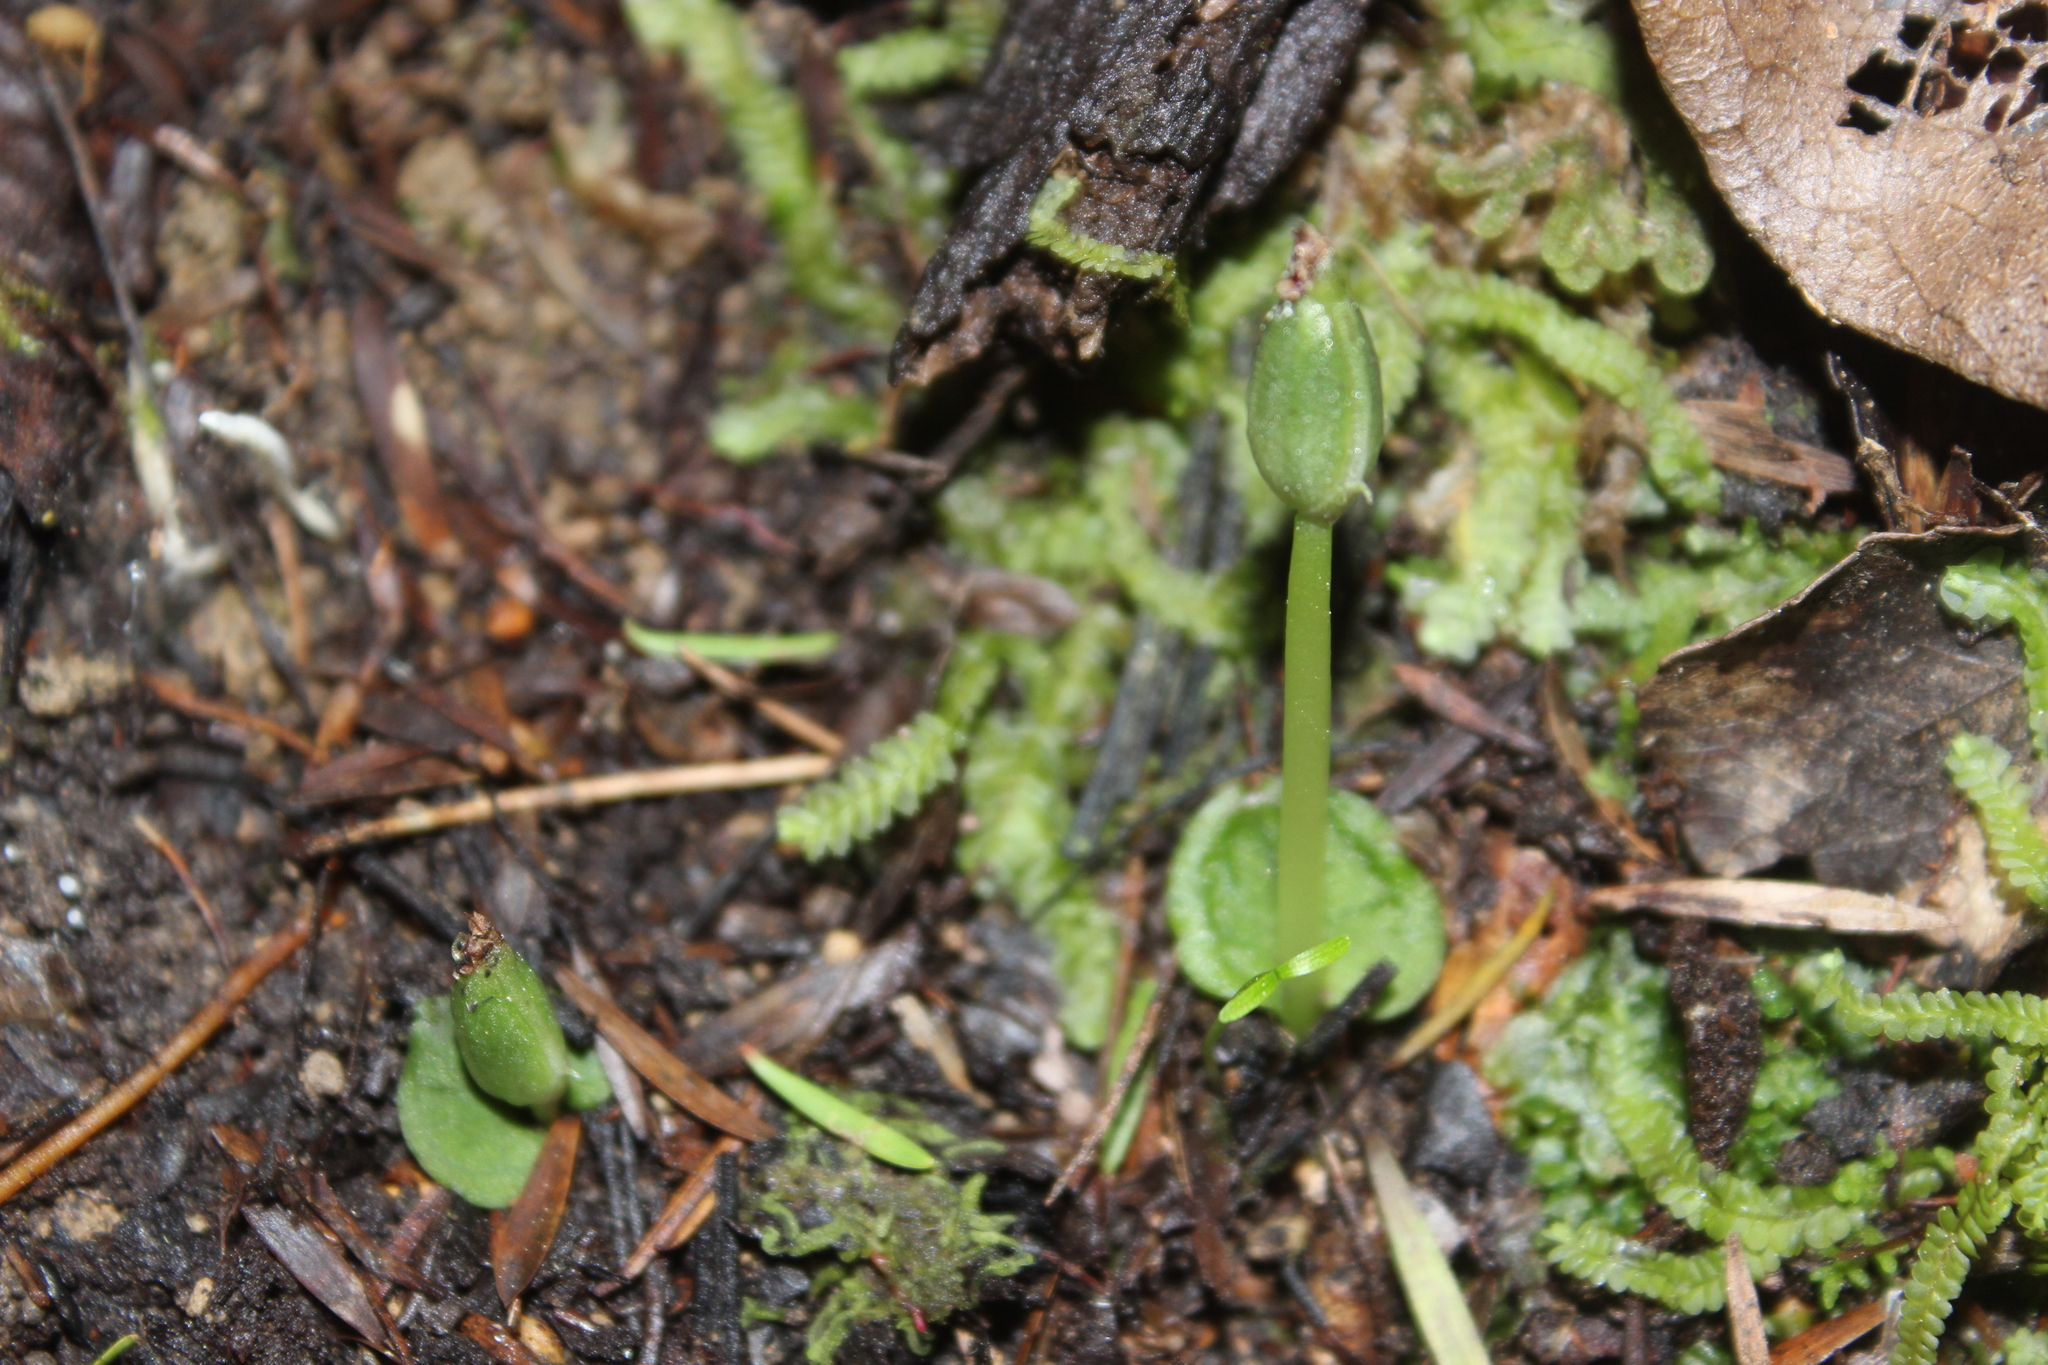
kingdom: Plantae
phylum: Tracheophyta
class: Liliopsida
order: Asparagales
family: Orchidaceae
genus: Corybas
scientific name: Corybas cheesemanii
